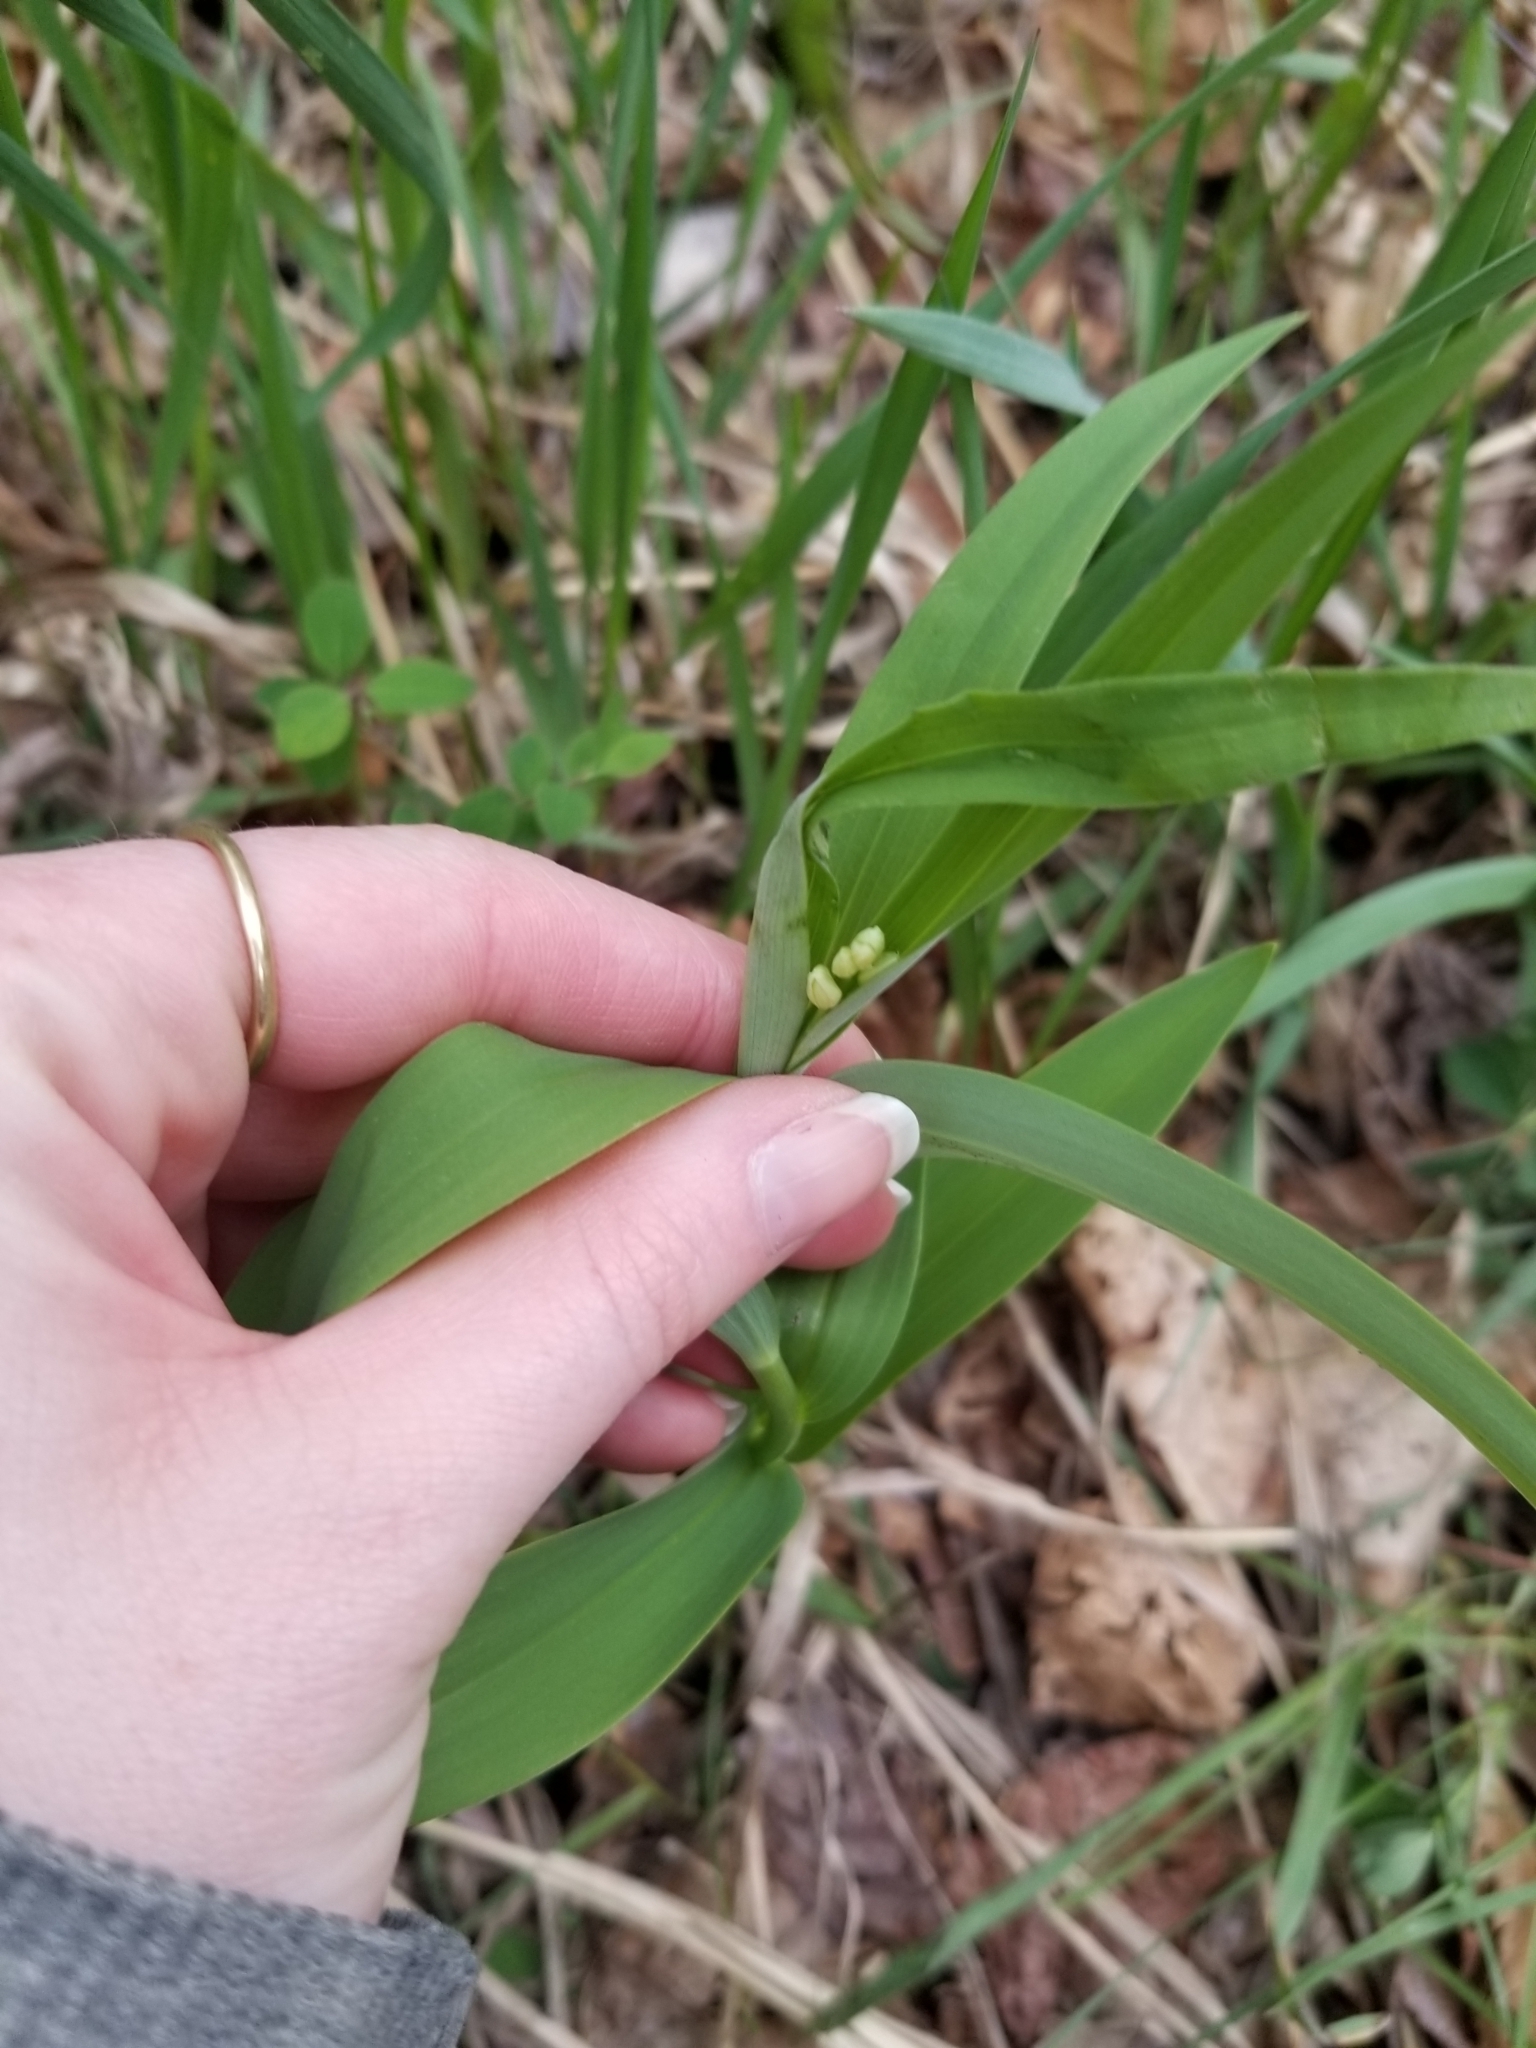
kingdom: Plantae
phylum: Tracheophyta
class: Liliopsida
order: Asparagales
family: Asparagaceae
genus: Maianthemum
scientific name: Maianthemum stellatum
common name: Little false solomon's seal
